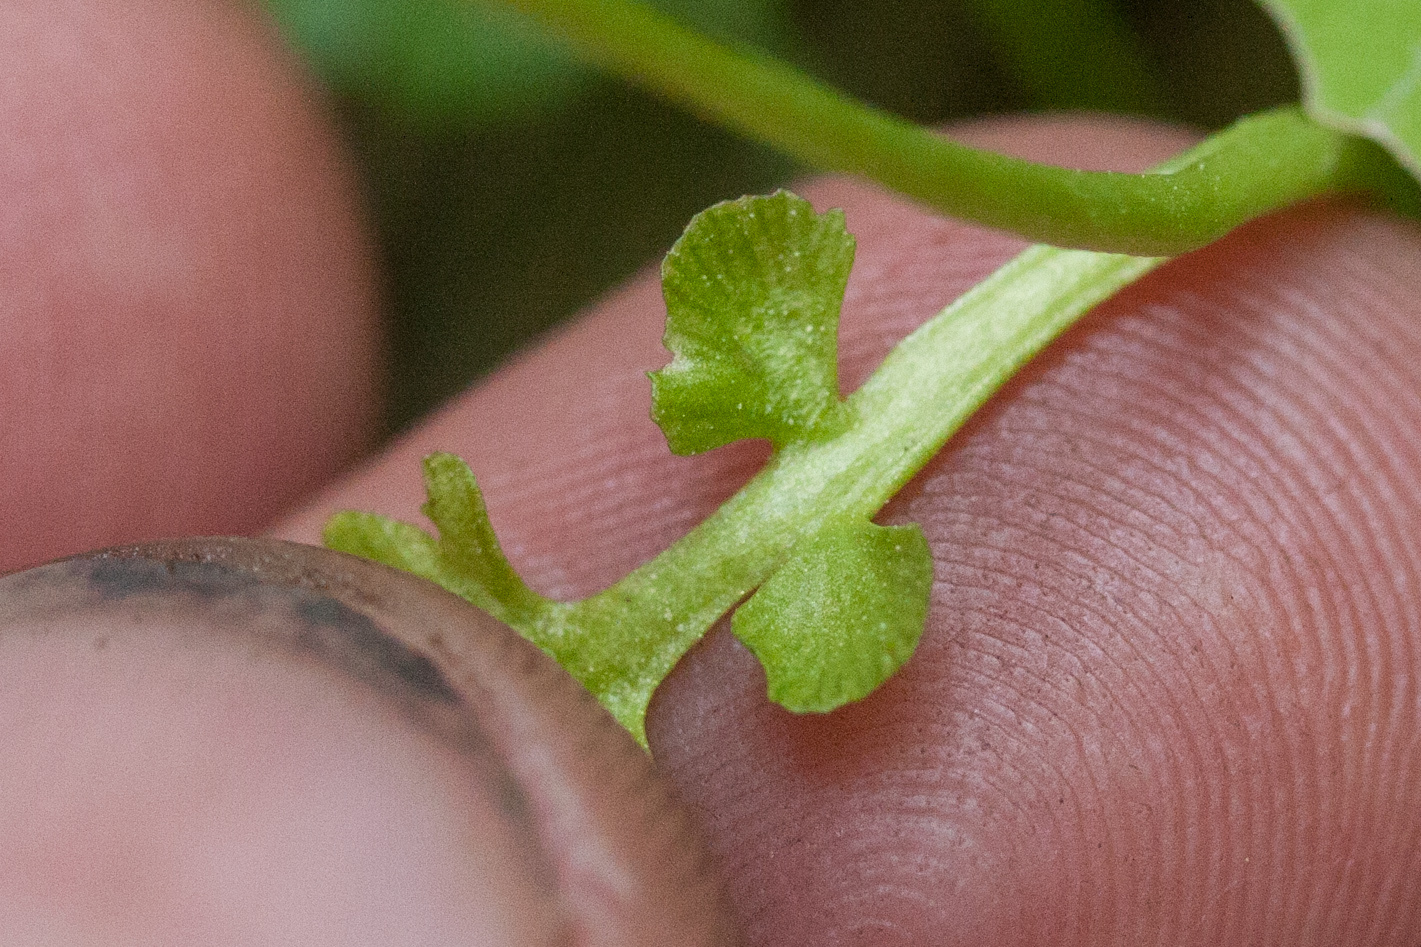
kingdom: Plantae
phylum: Tracheophyta
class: Polypodiopsida
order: Ophioglossales
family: Ophioglossaceae
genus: Botrychium
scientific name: Botrychium minganense
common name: Mingan grapefern
